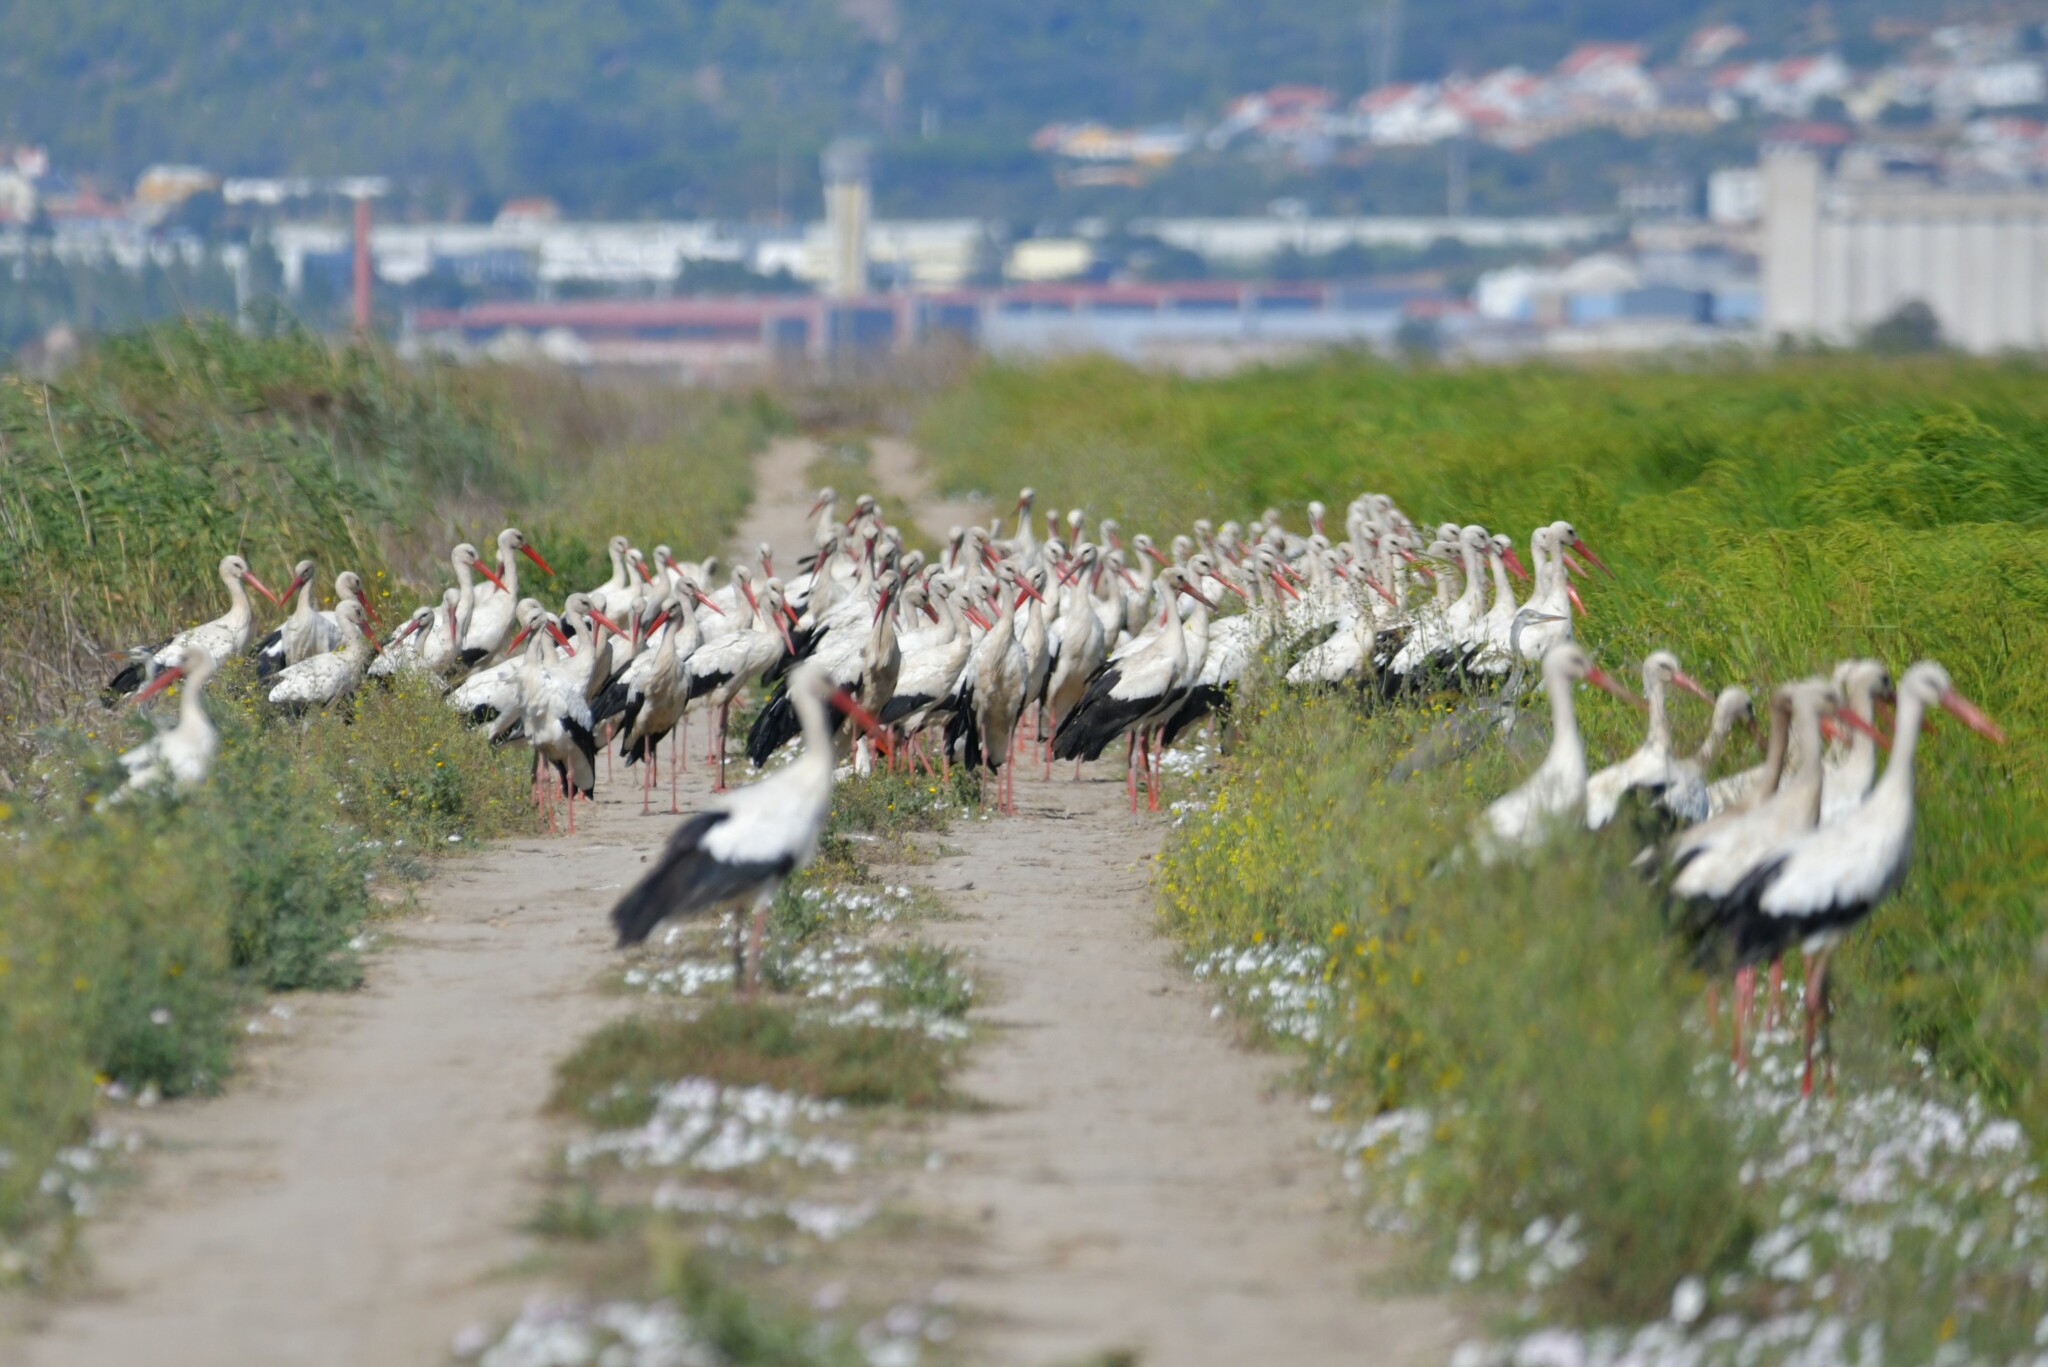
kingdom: Animalia
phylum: Chordata
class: Aves
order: Ciconiiformes
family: Ciconiidae
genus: Ciconia
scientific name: Ciconia ciconia
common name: White stork
